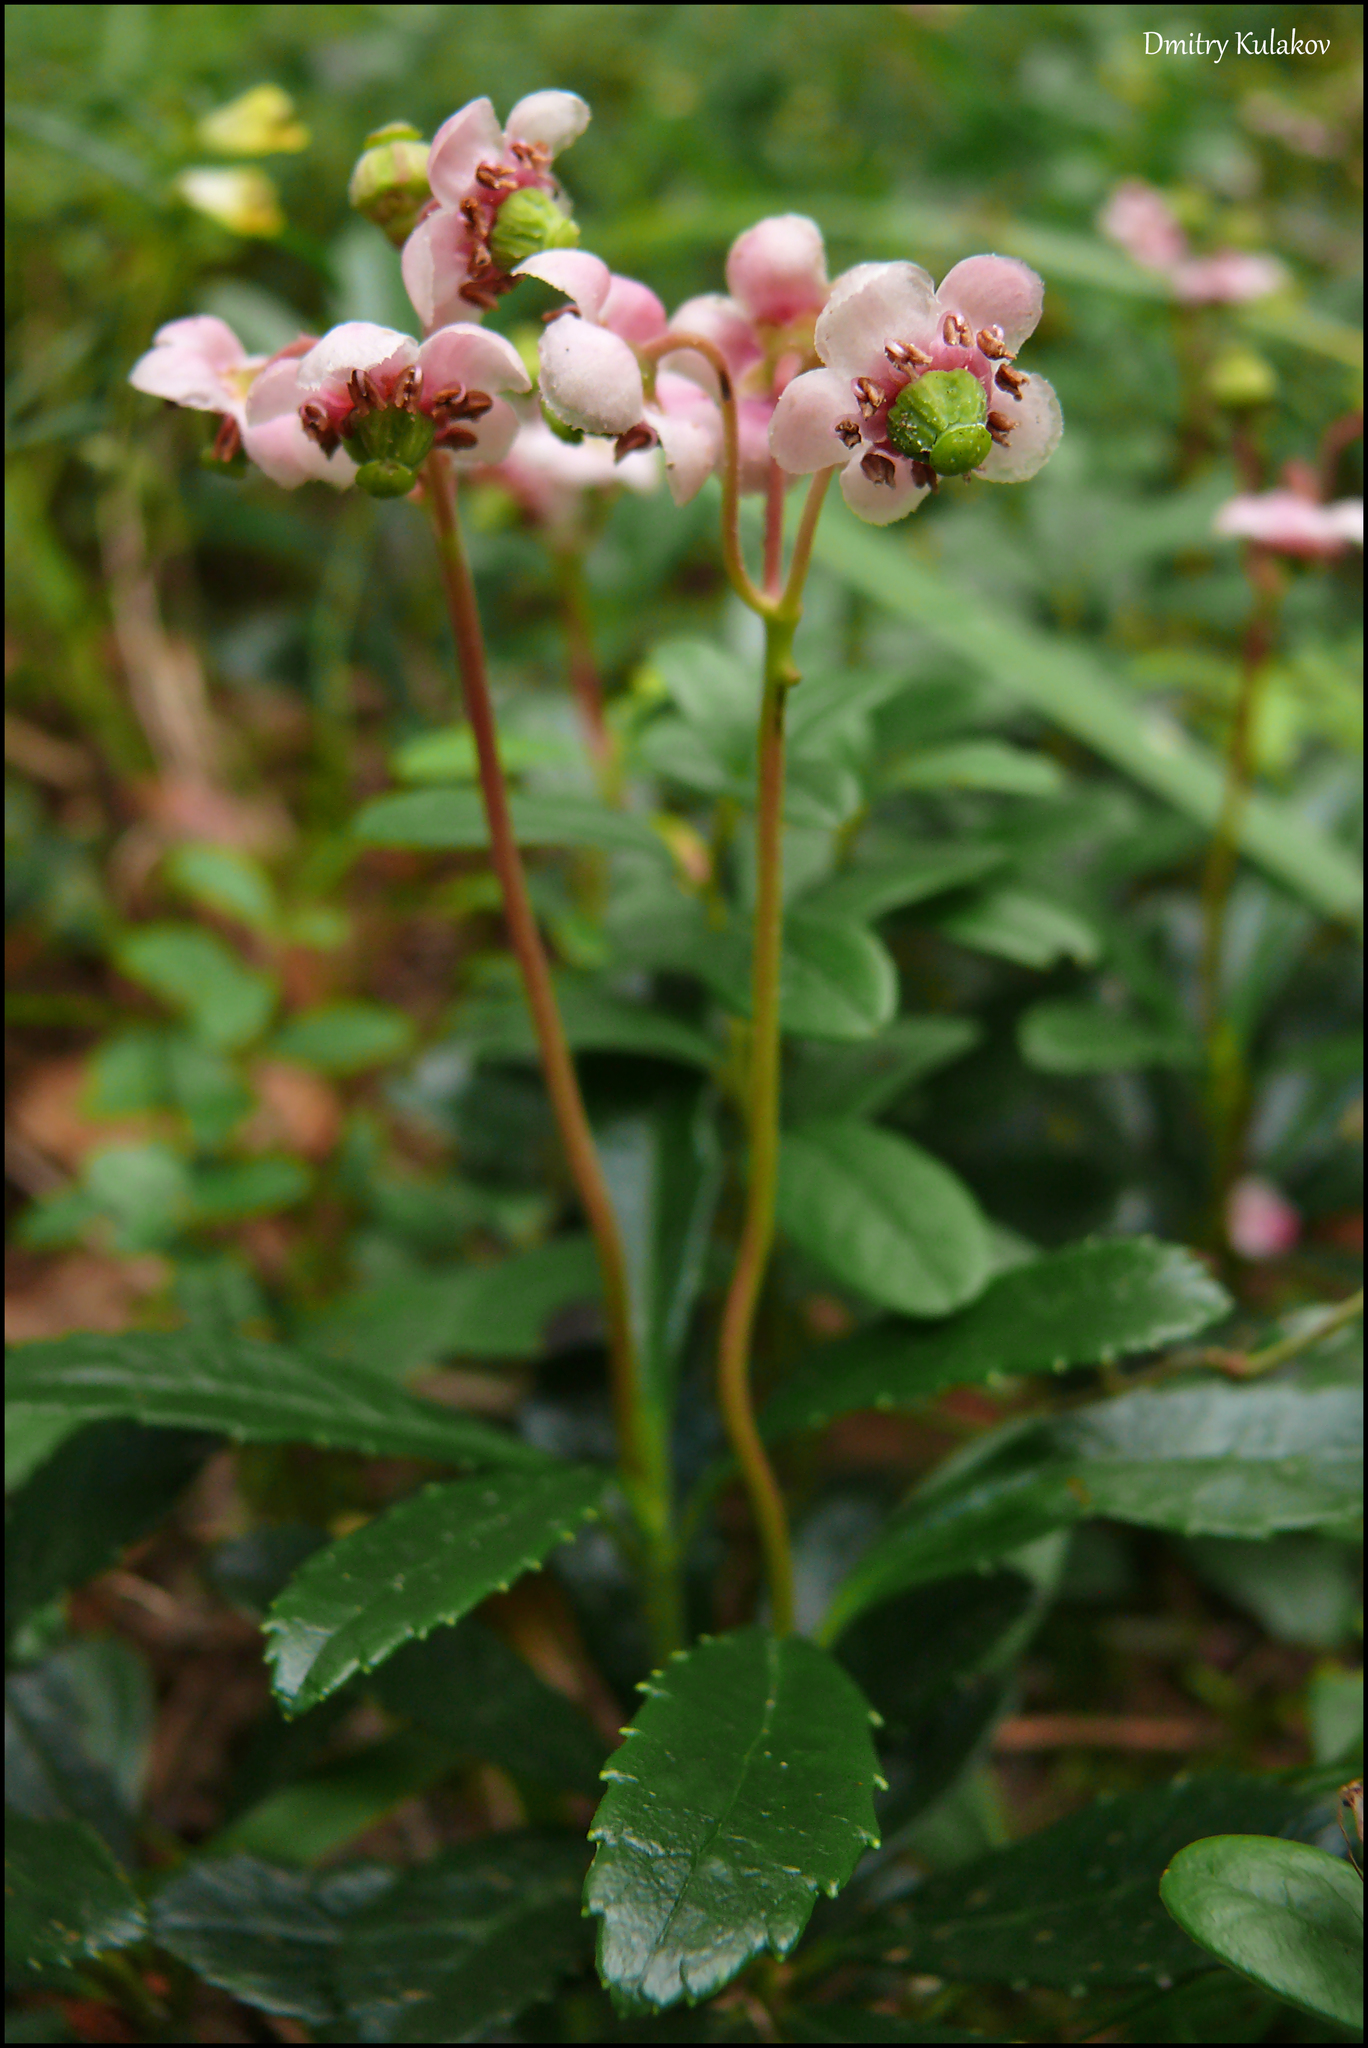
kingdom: Plantae
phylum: Tracheophyta
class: Magnoliopsida
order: Ericales
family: Ericaceae
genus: Chimaphila
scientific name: Chimaphila umbellata
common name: Pipsissewa
